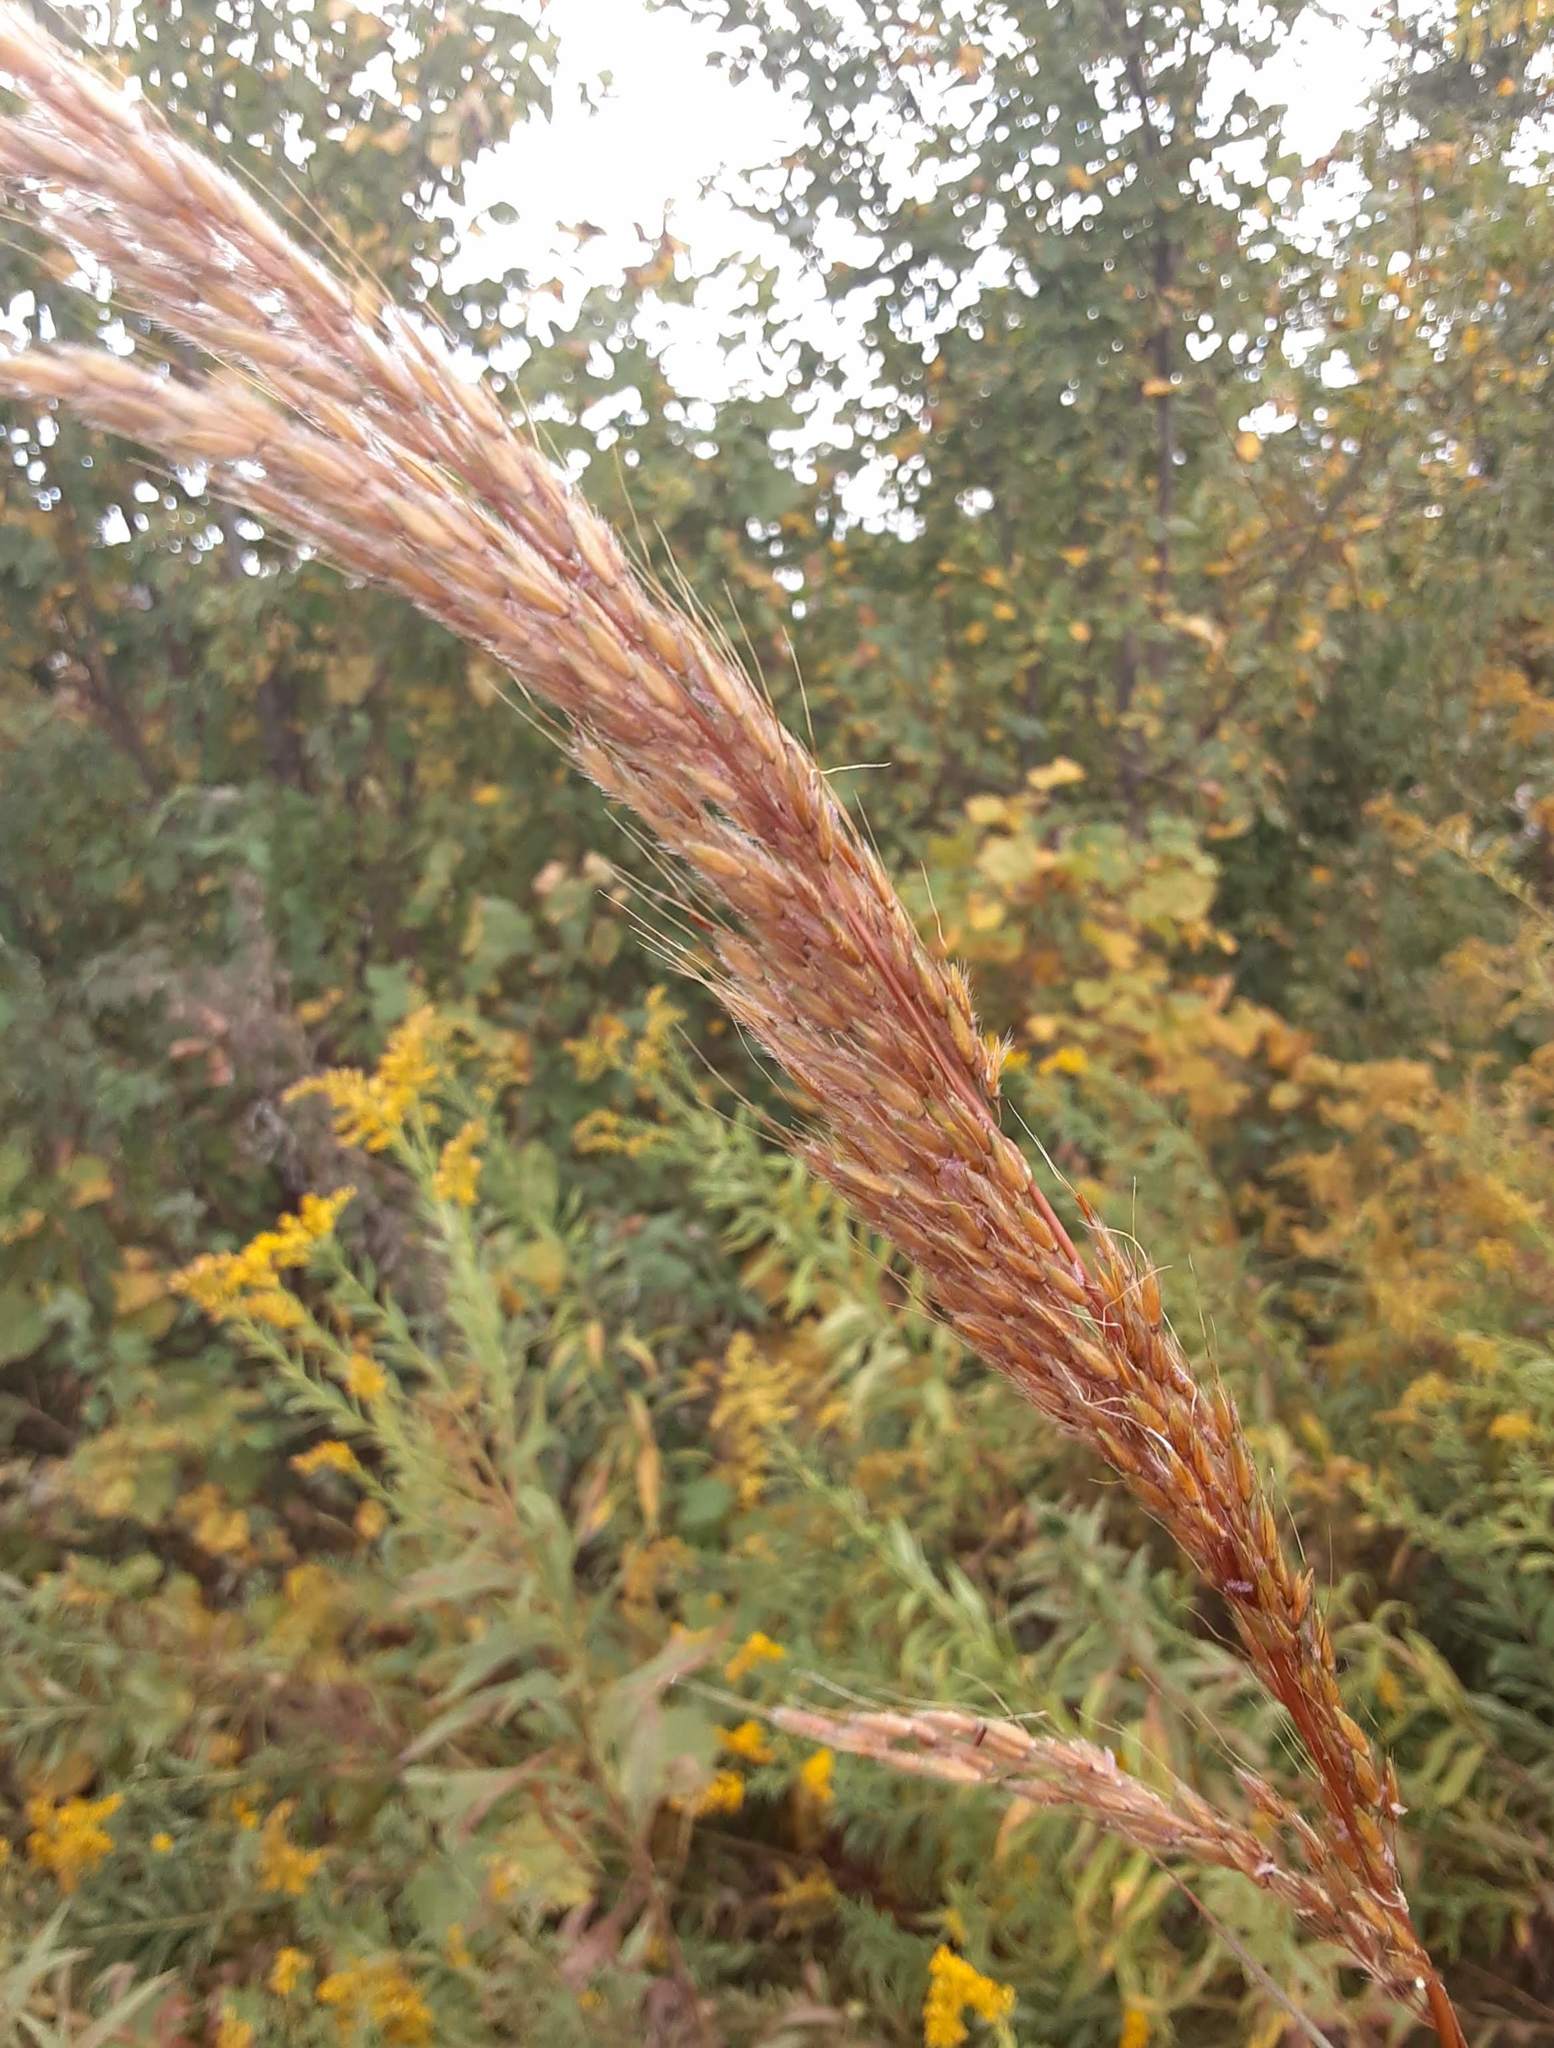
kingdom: Plantae
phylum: Tracheophyta
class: Liliopsida
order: Poales
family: Poaceae
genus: Sorghastrum
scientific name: Sorghastrum nutans
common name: Indian grass
